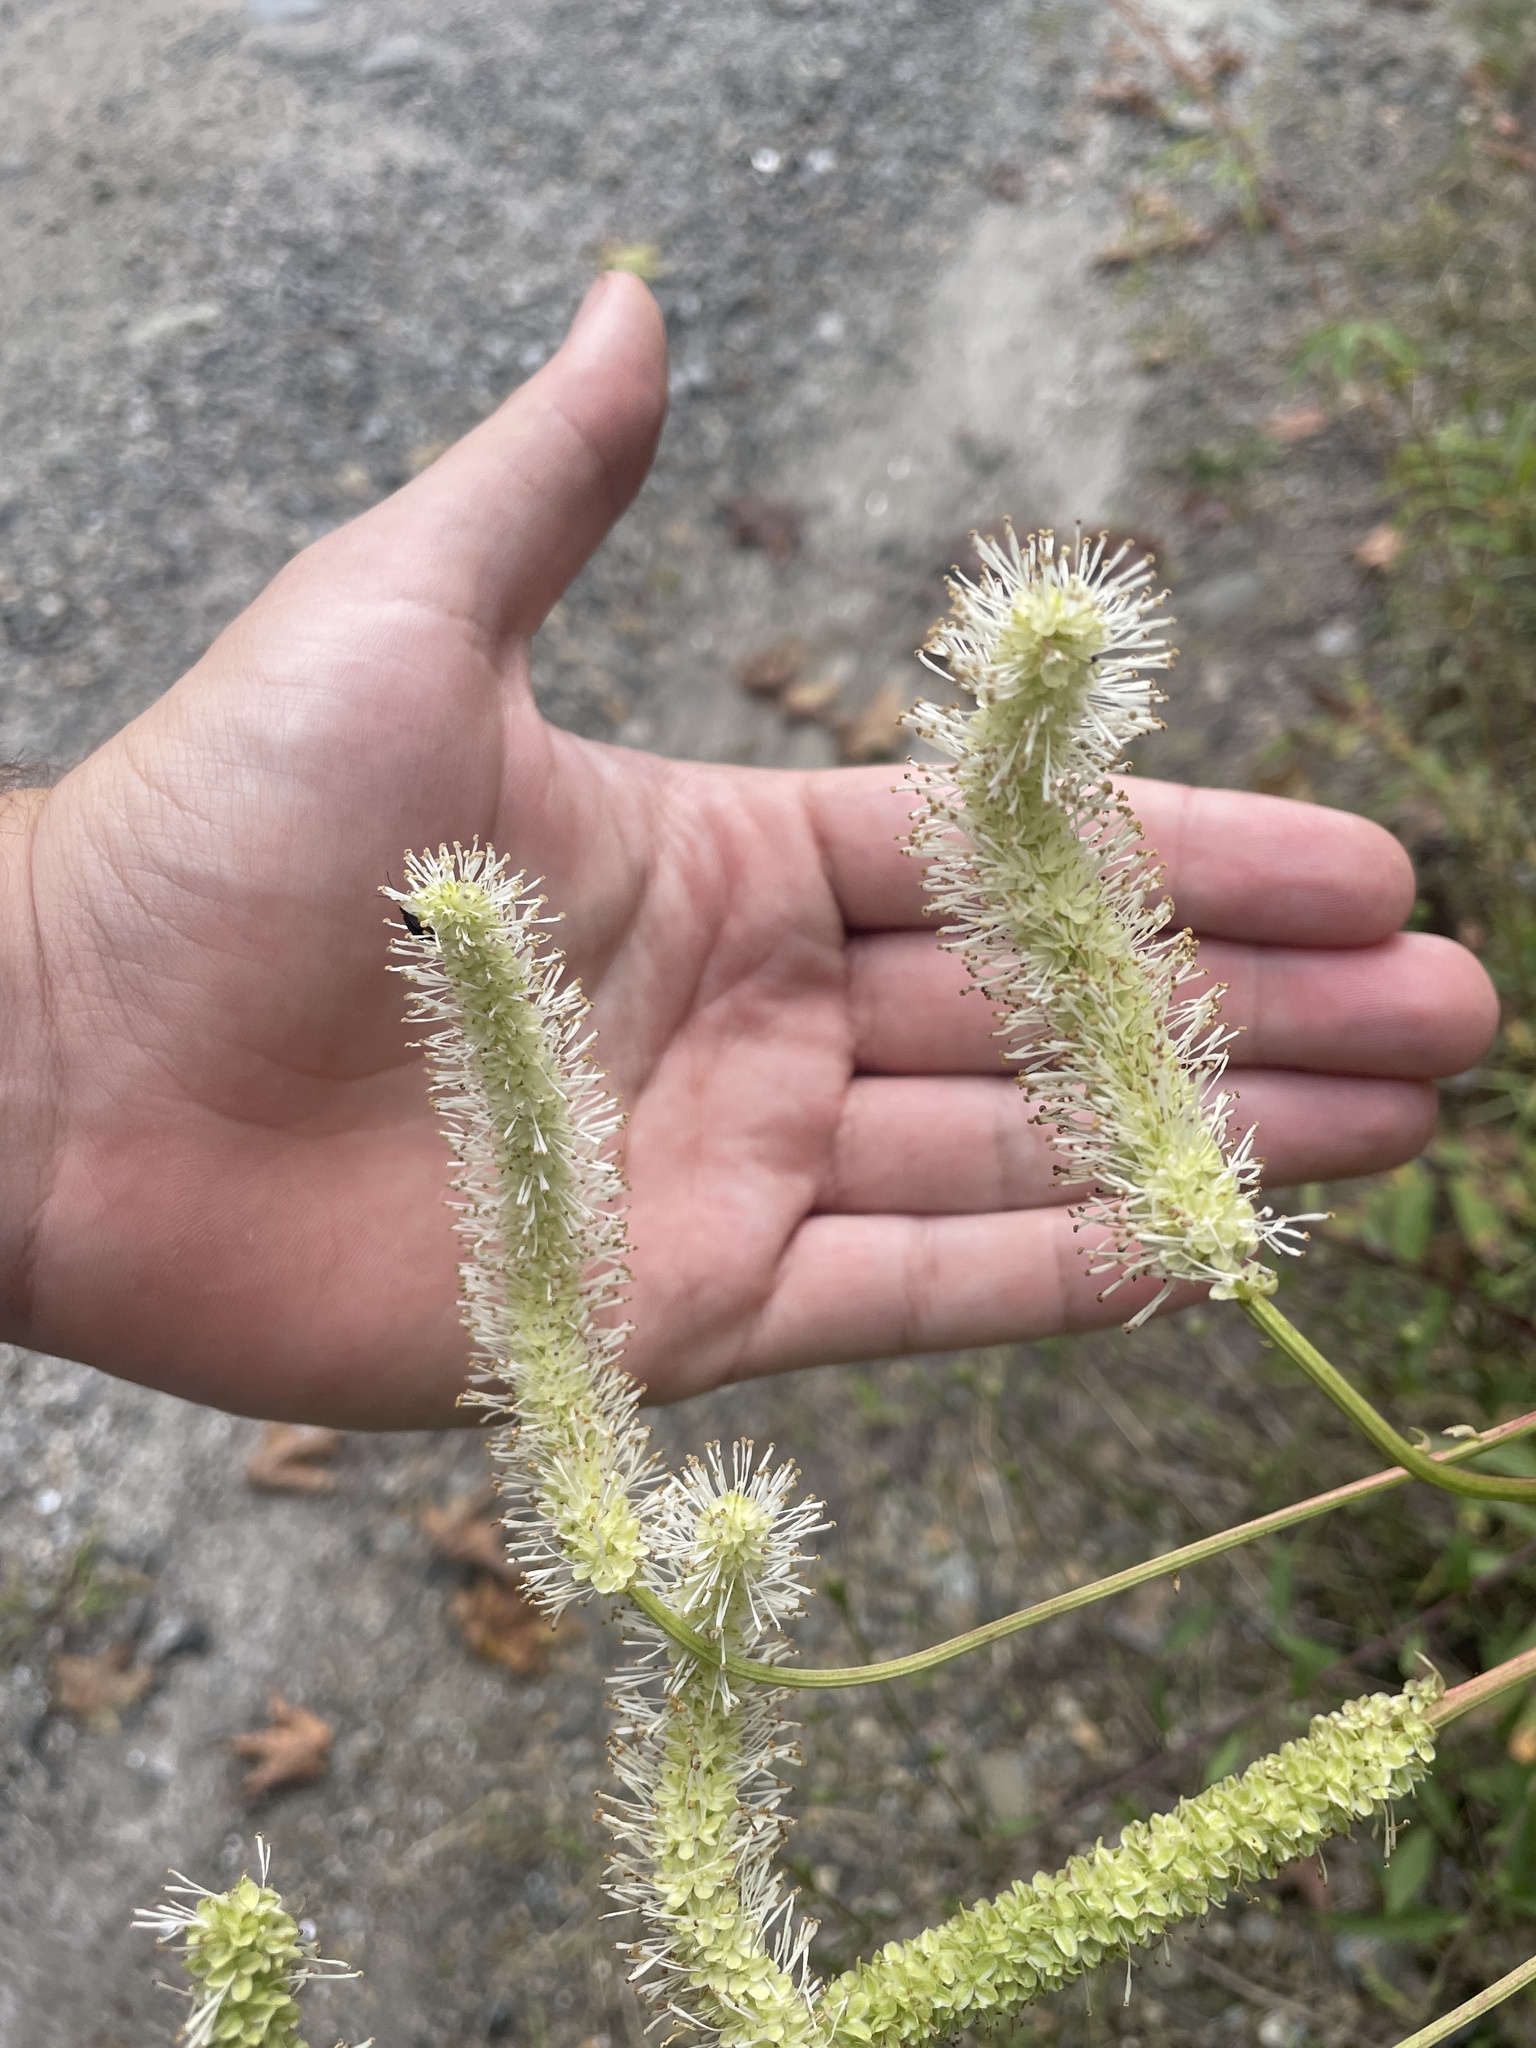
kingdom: Plantae
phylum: Tracheophyta
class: Magnoliopsida
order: Rosales
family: Rosaceae
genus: Sanguisorba
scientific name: Sanguisorba canadensis
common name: White burnet
